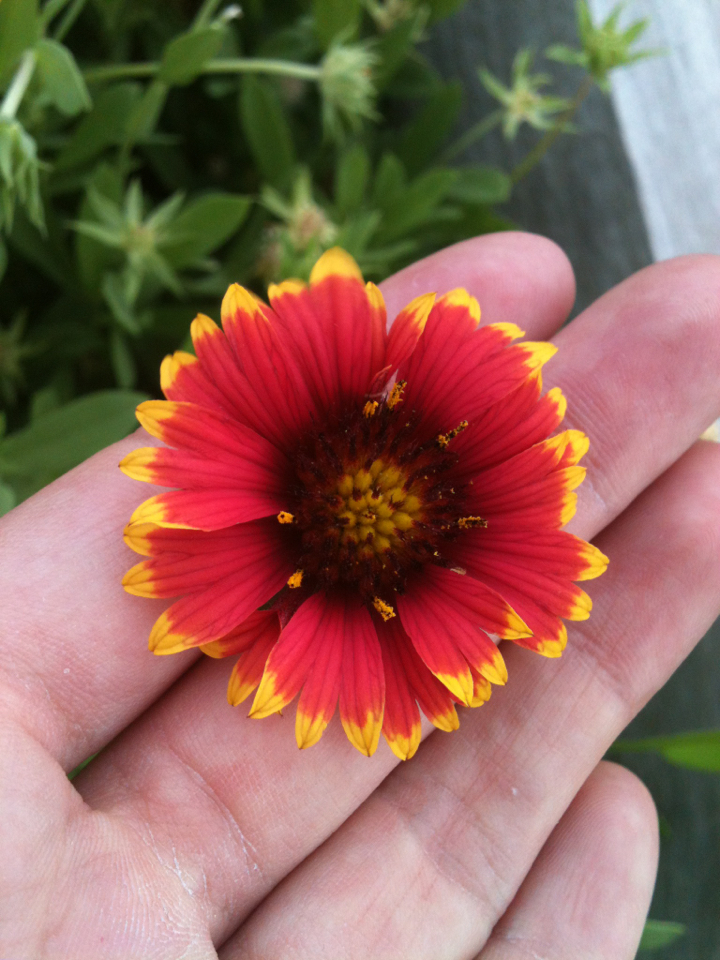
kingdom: Plantae
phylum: Tracheophyta
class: Magnoliopsida
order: Asterales
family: Asteraceae
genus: Gaillardia
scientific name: Gaillardia pulchella
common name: Firewheel
